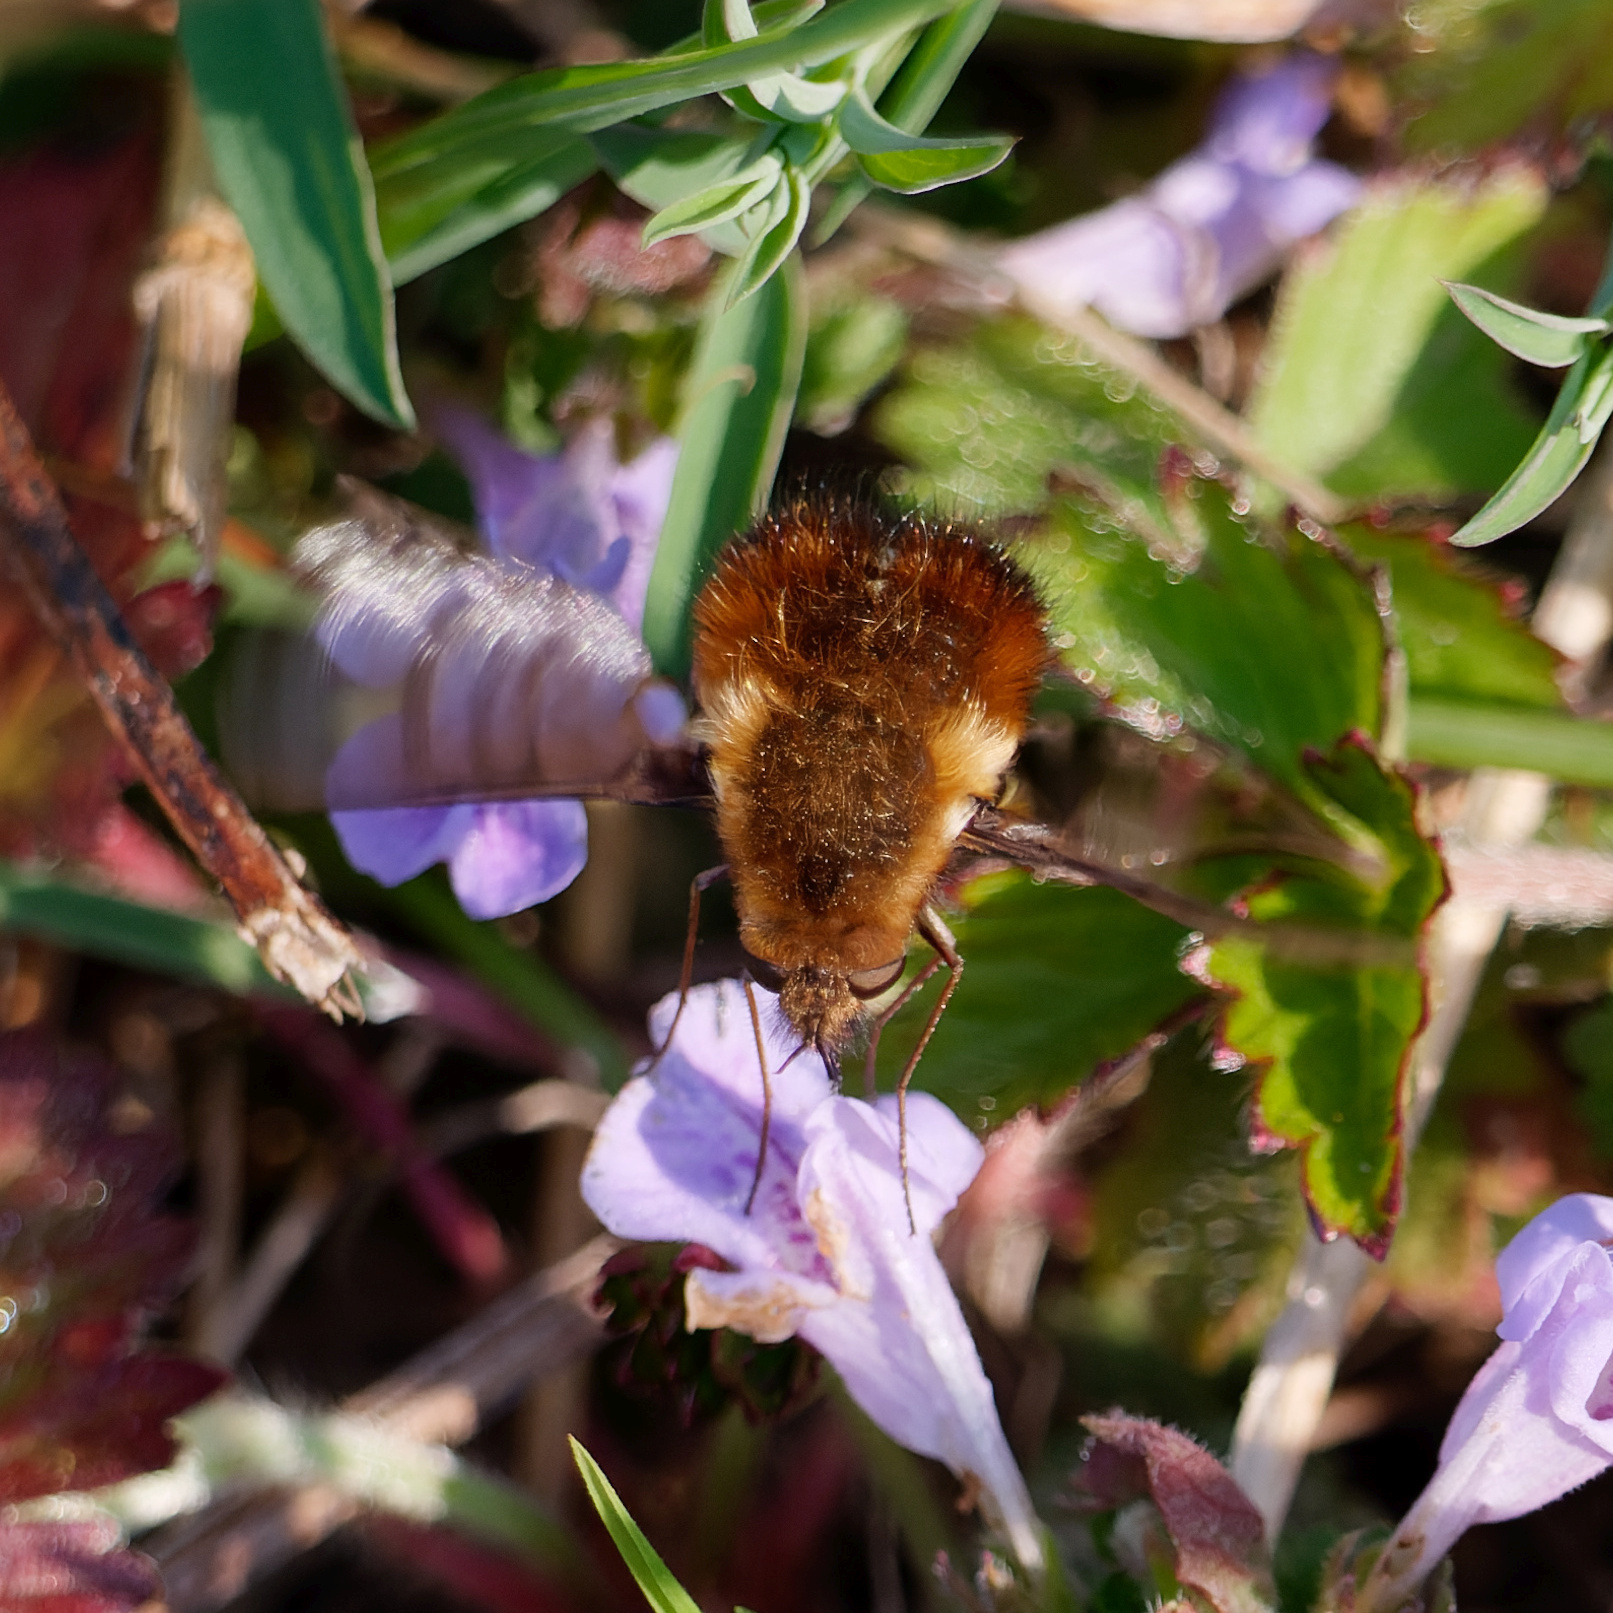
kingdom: Animalia
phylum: Arthropoda
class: Insecta
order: Diptera
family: Bombyliidae
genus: Bombylius
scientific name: Bombylius discolor
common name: Dotted bee-fly
